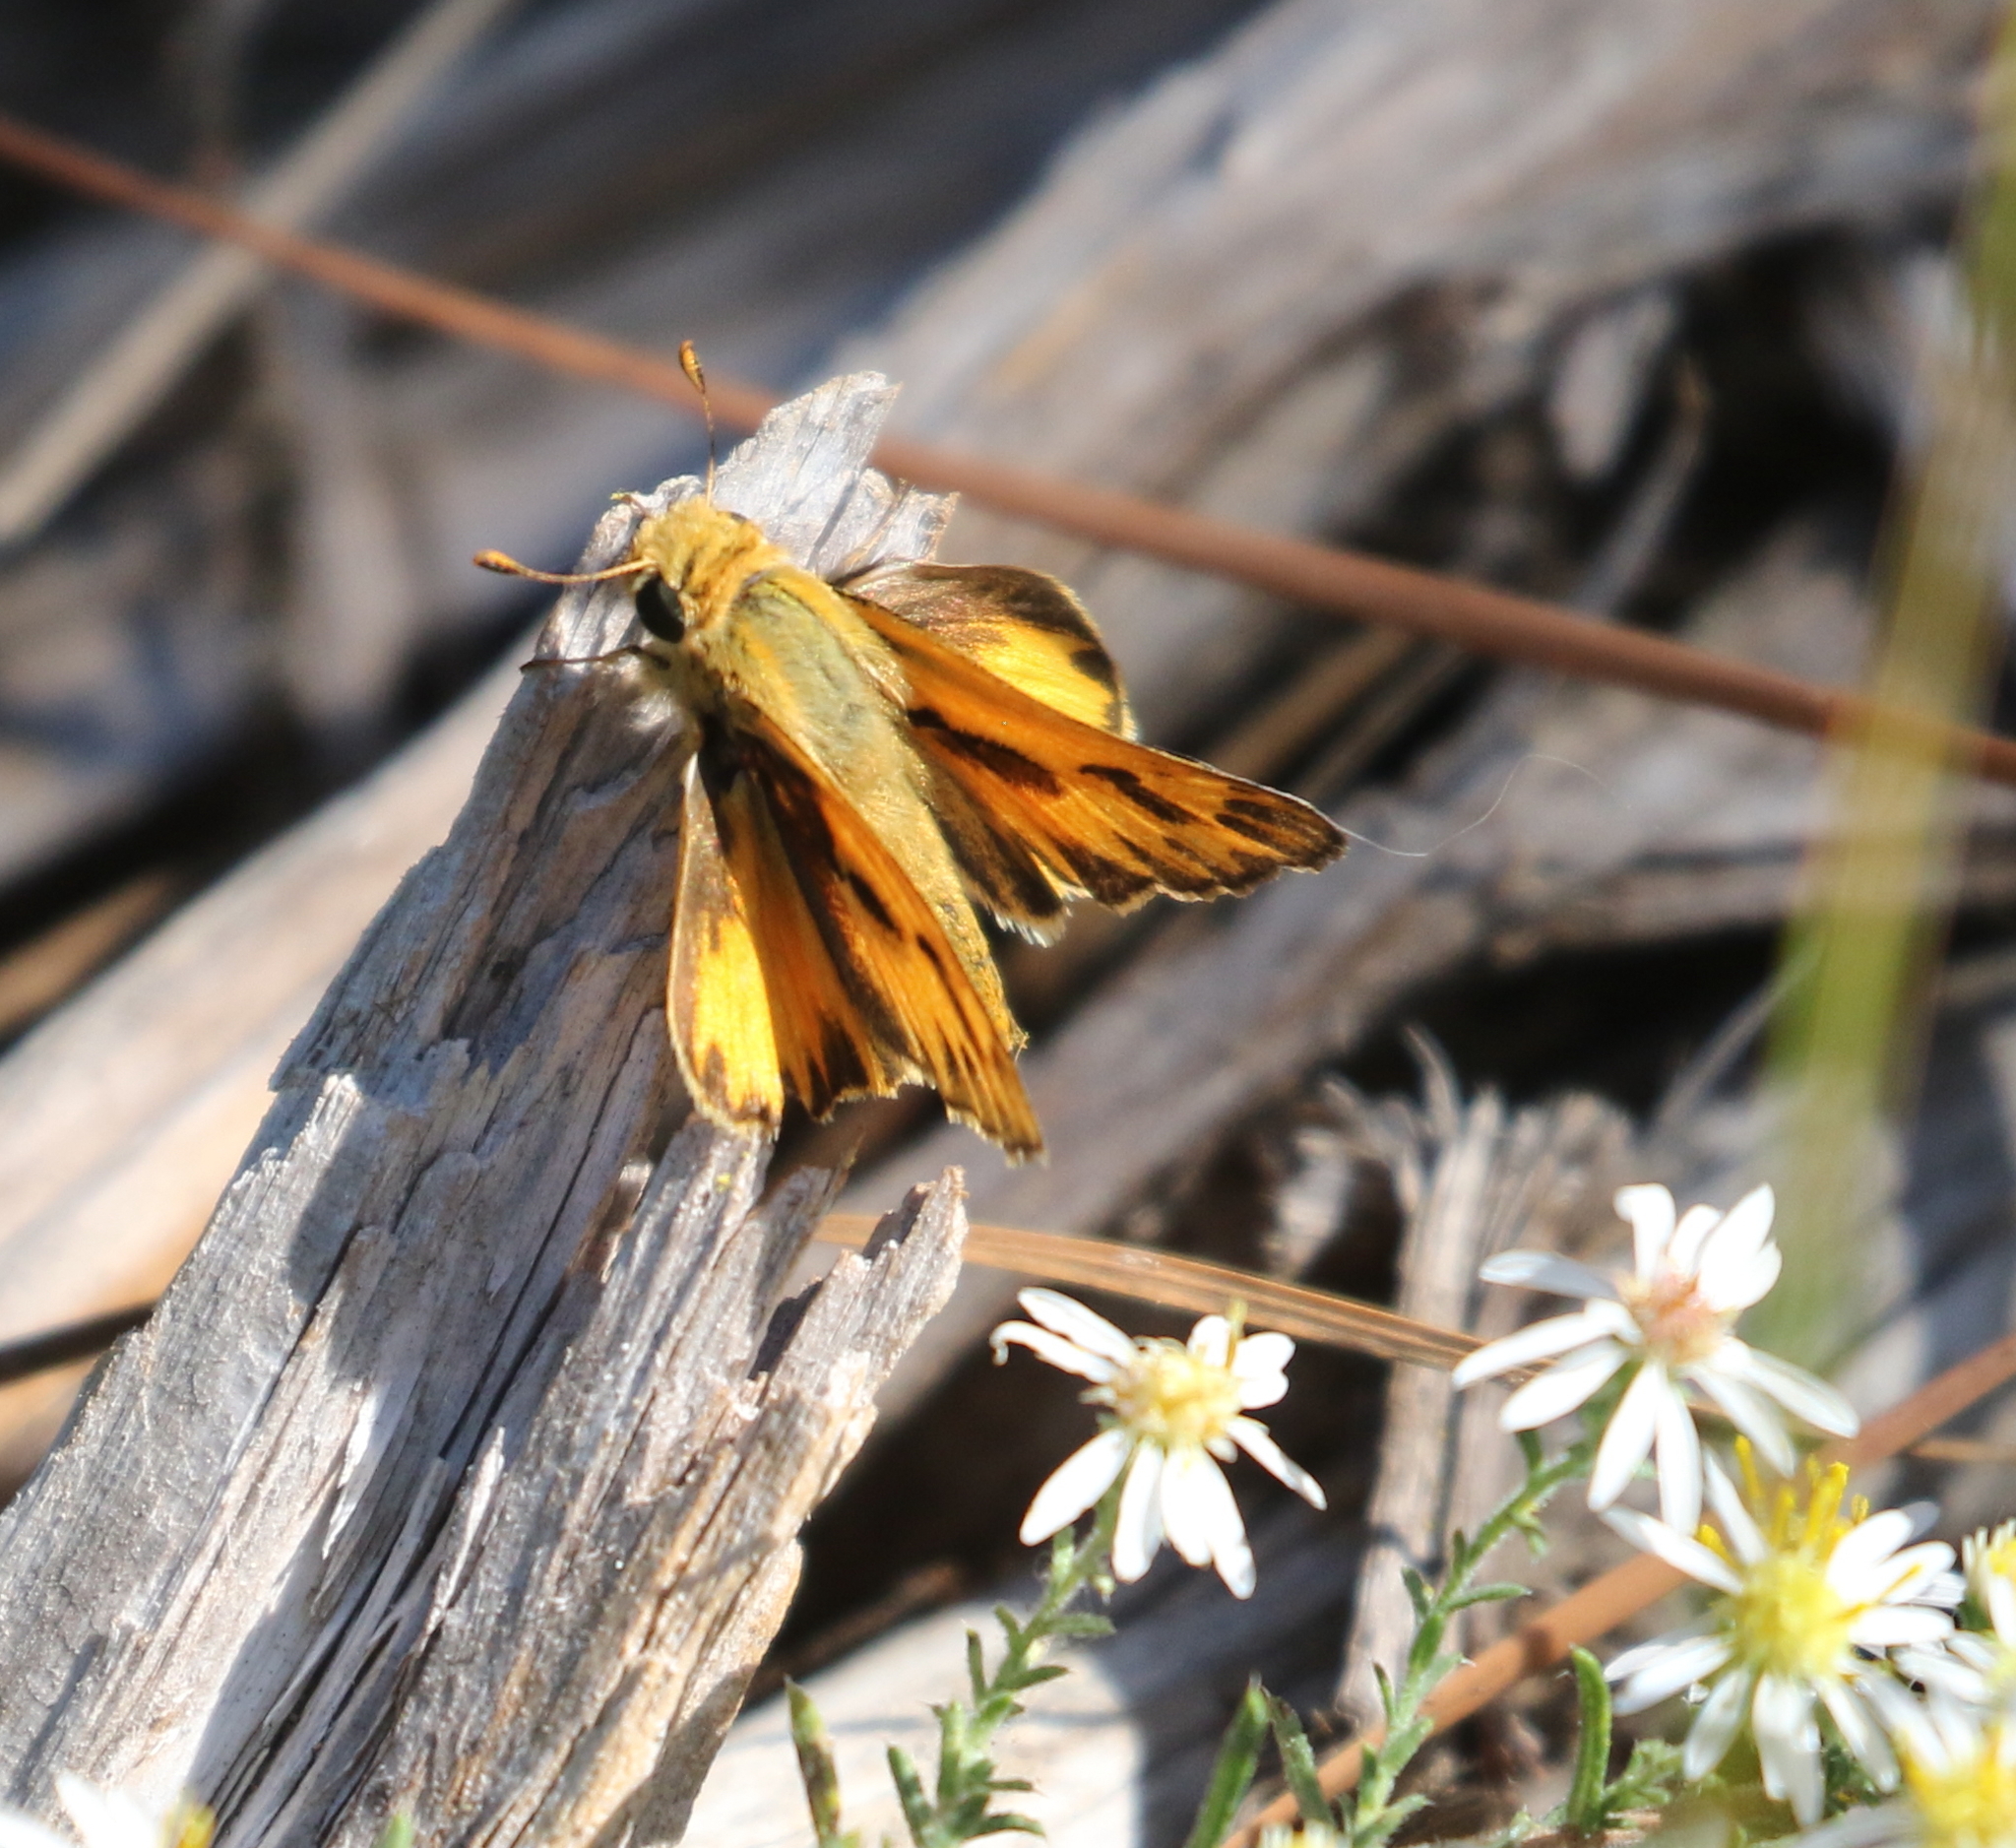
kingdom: Animalia
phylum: Arthropoda
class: Insecta
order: Lepidoptera
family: Hesperiidae
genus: Hylephila
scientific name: Hylephila phyleus
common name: Fiery skipper
